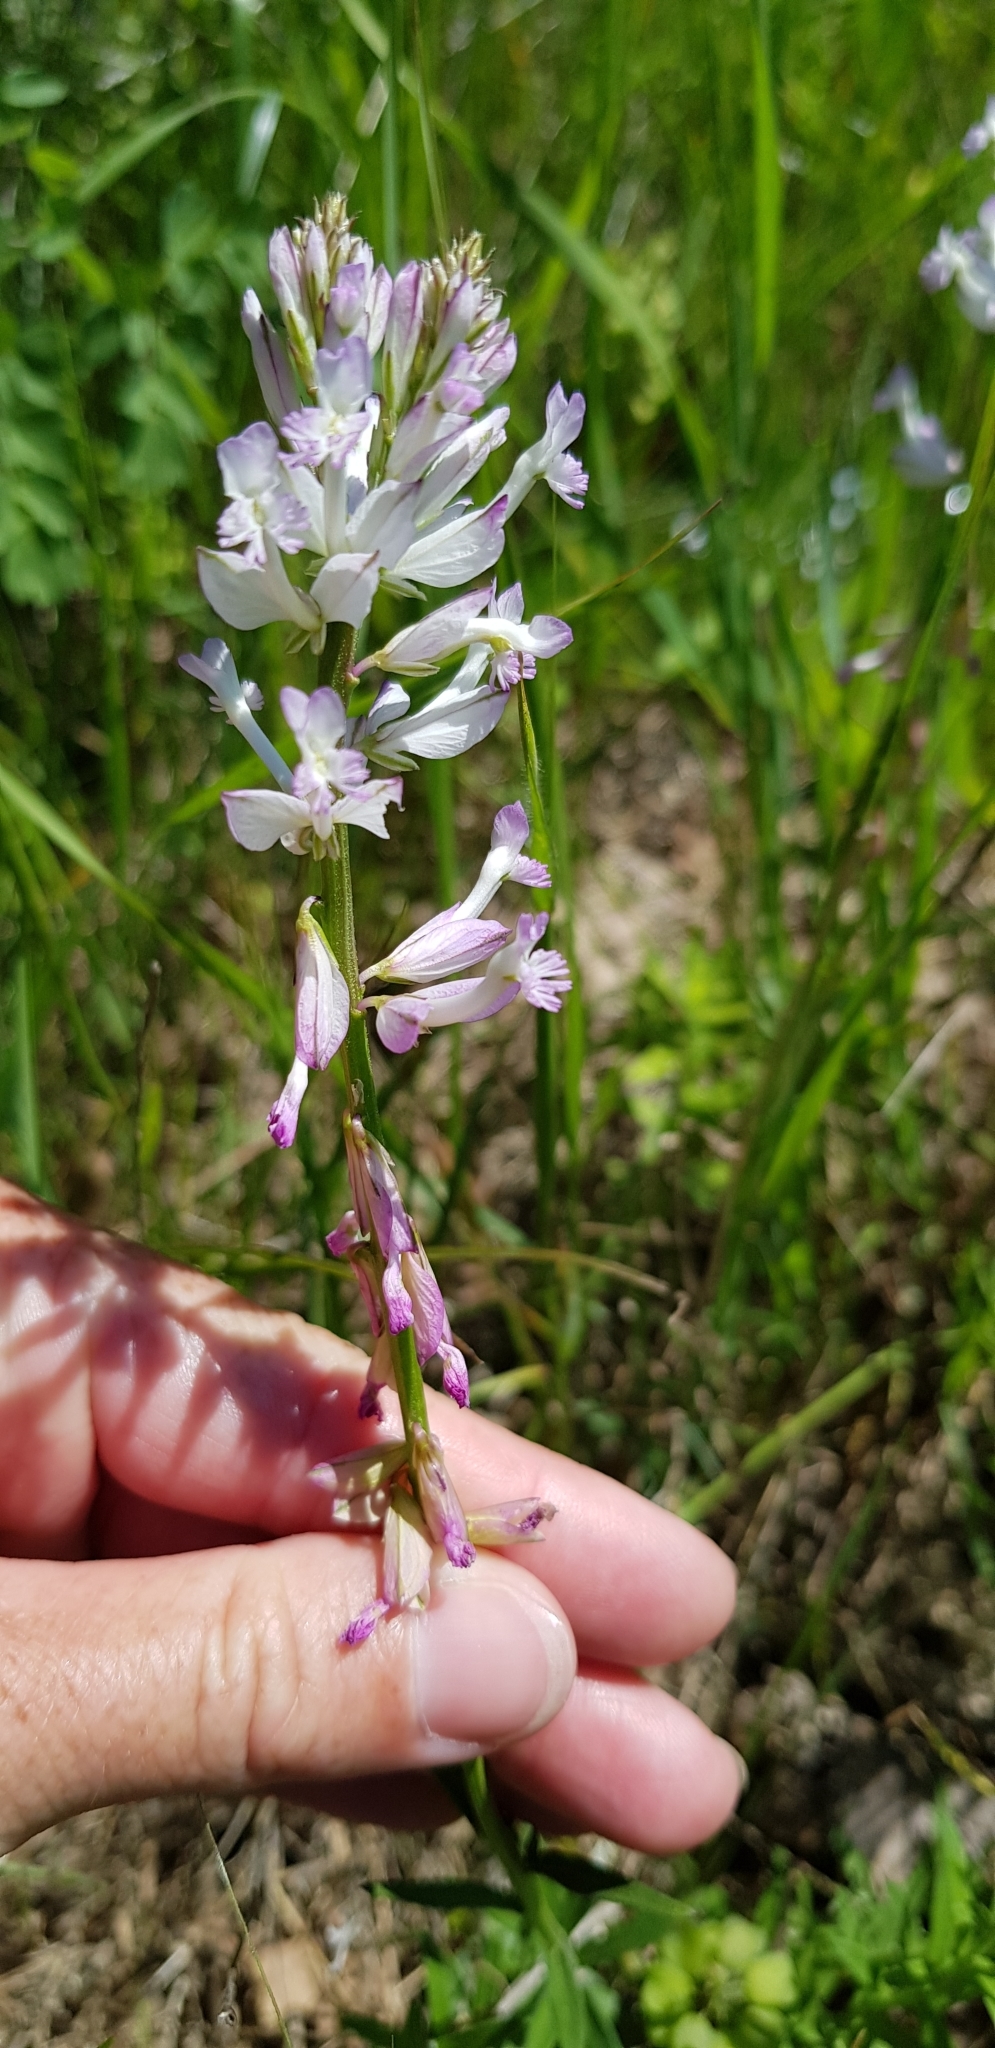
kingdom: Plantae
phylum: Tracheophyta
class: Magnoliopsida
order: Fabales
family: Polygalaceae
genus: Polygala
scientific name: Polygala major
